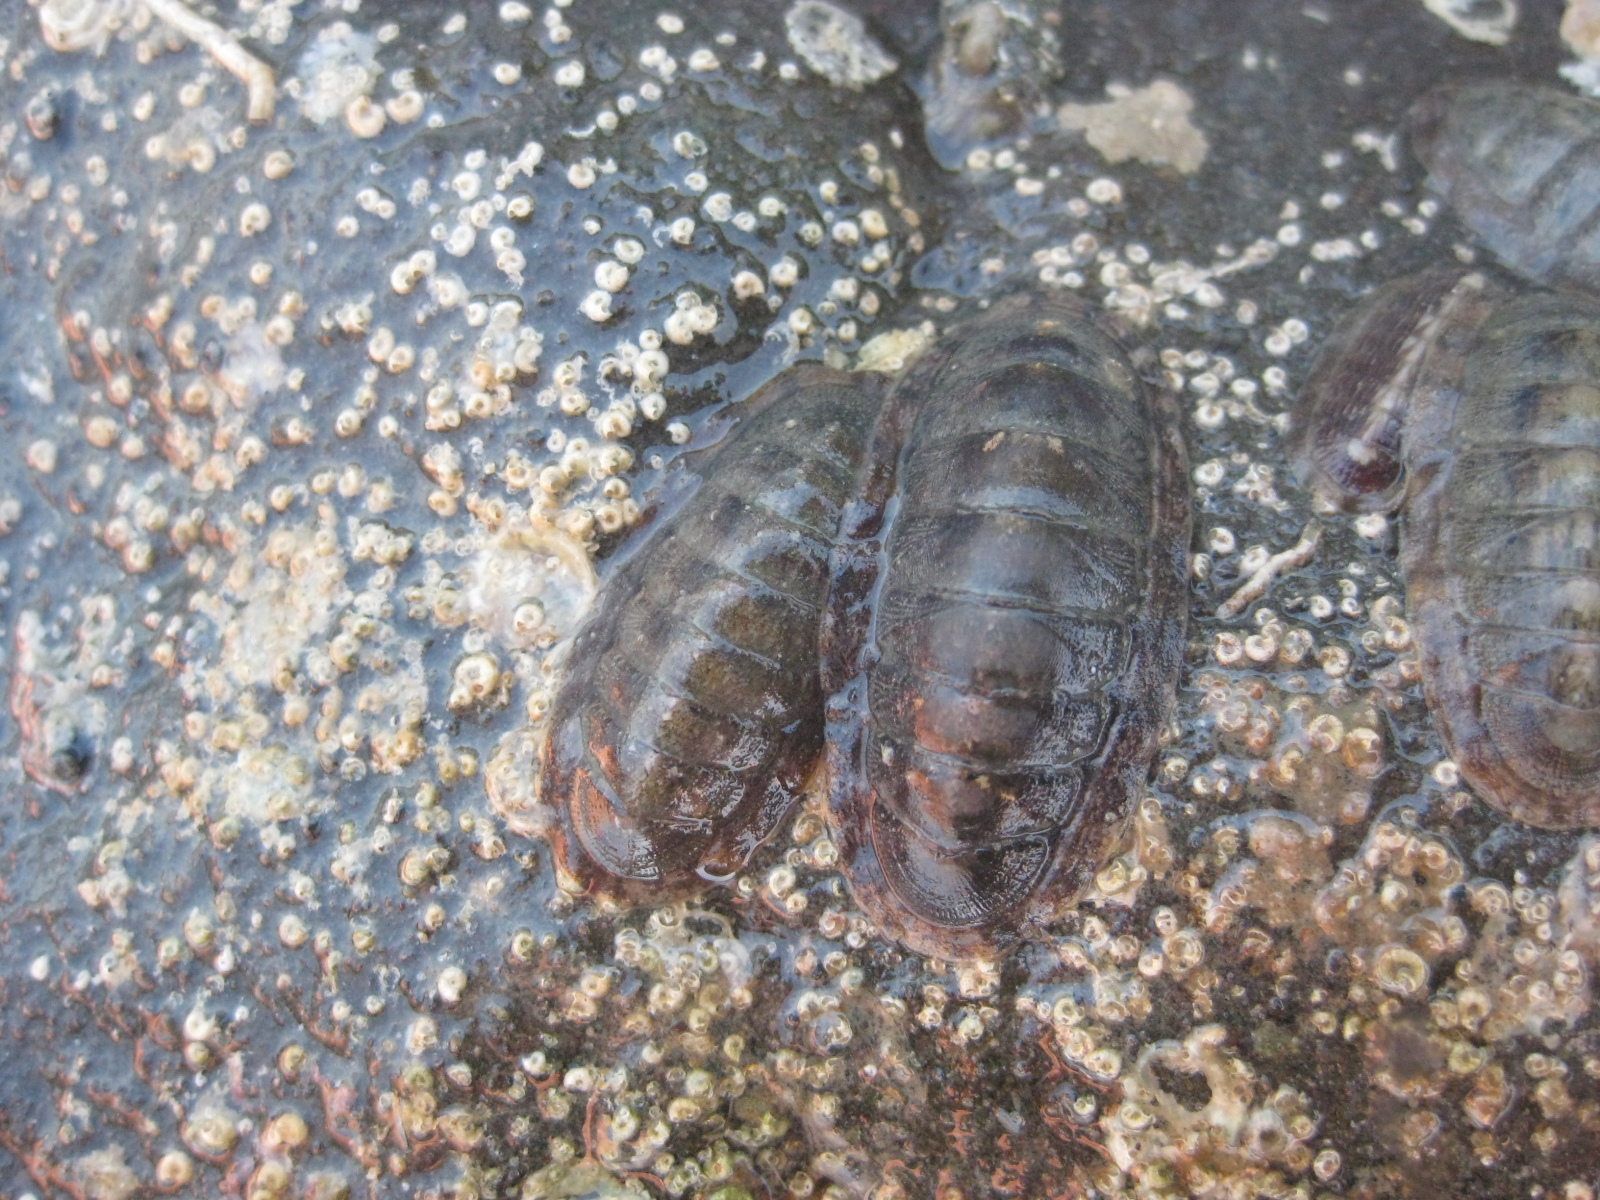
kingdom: Animalia
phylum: Mollusca
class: Polyplacophora
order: Chitonida
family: Ischnochitonidae
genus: Ischnochiton
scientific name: Ischnochiton maorianus
